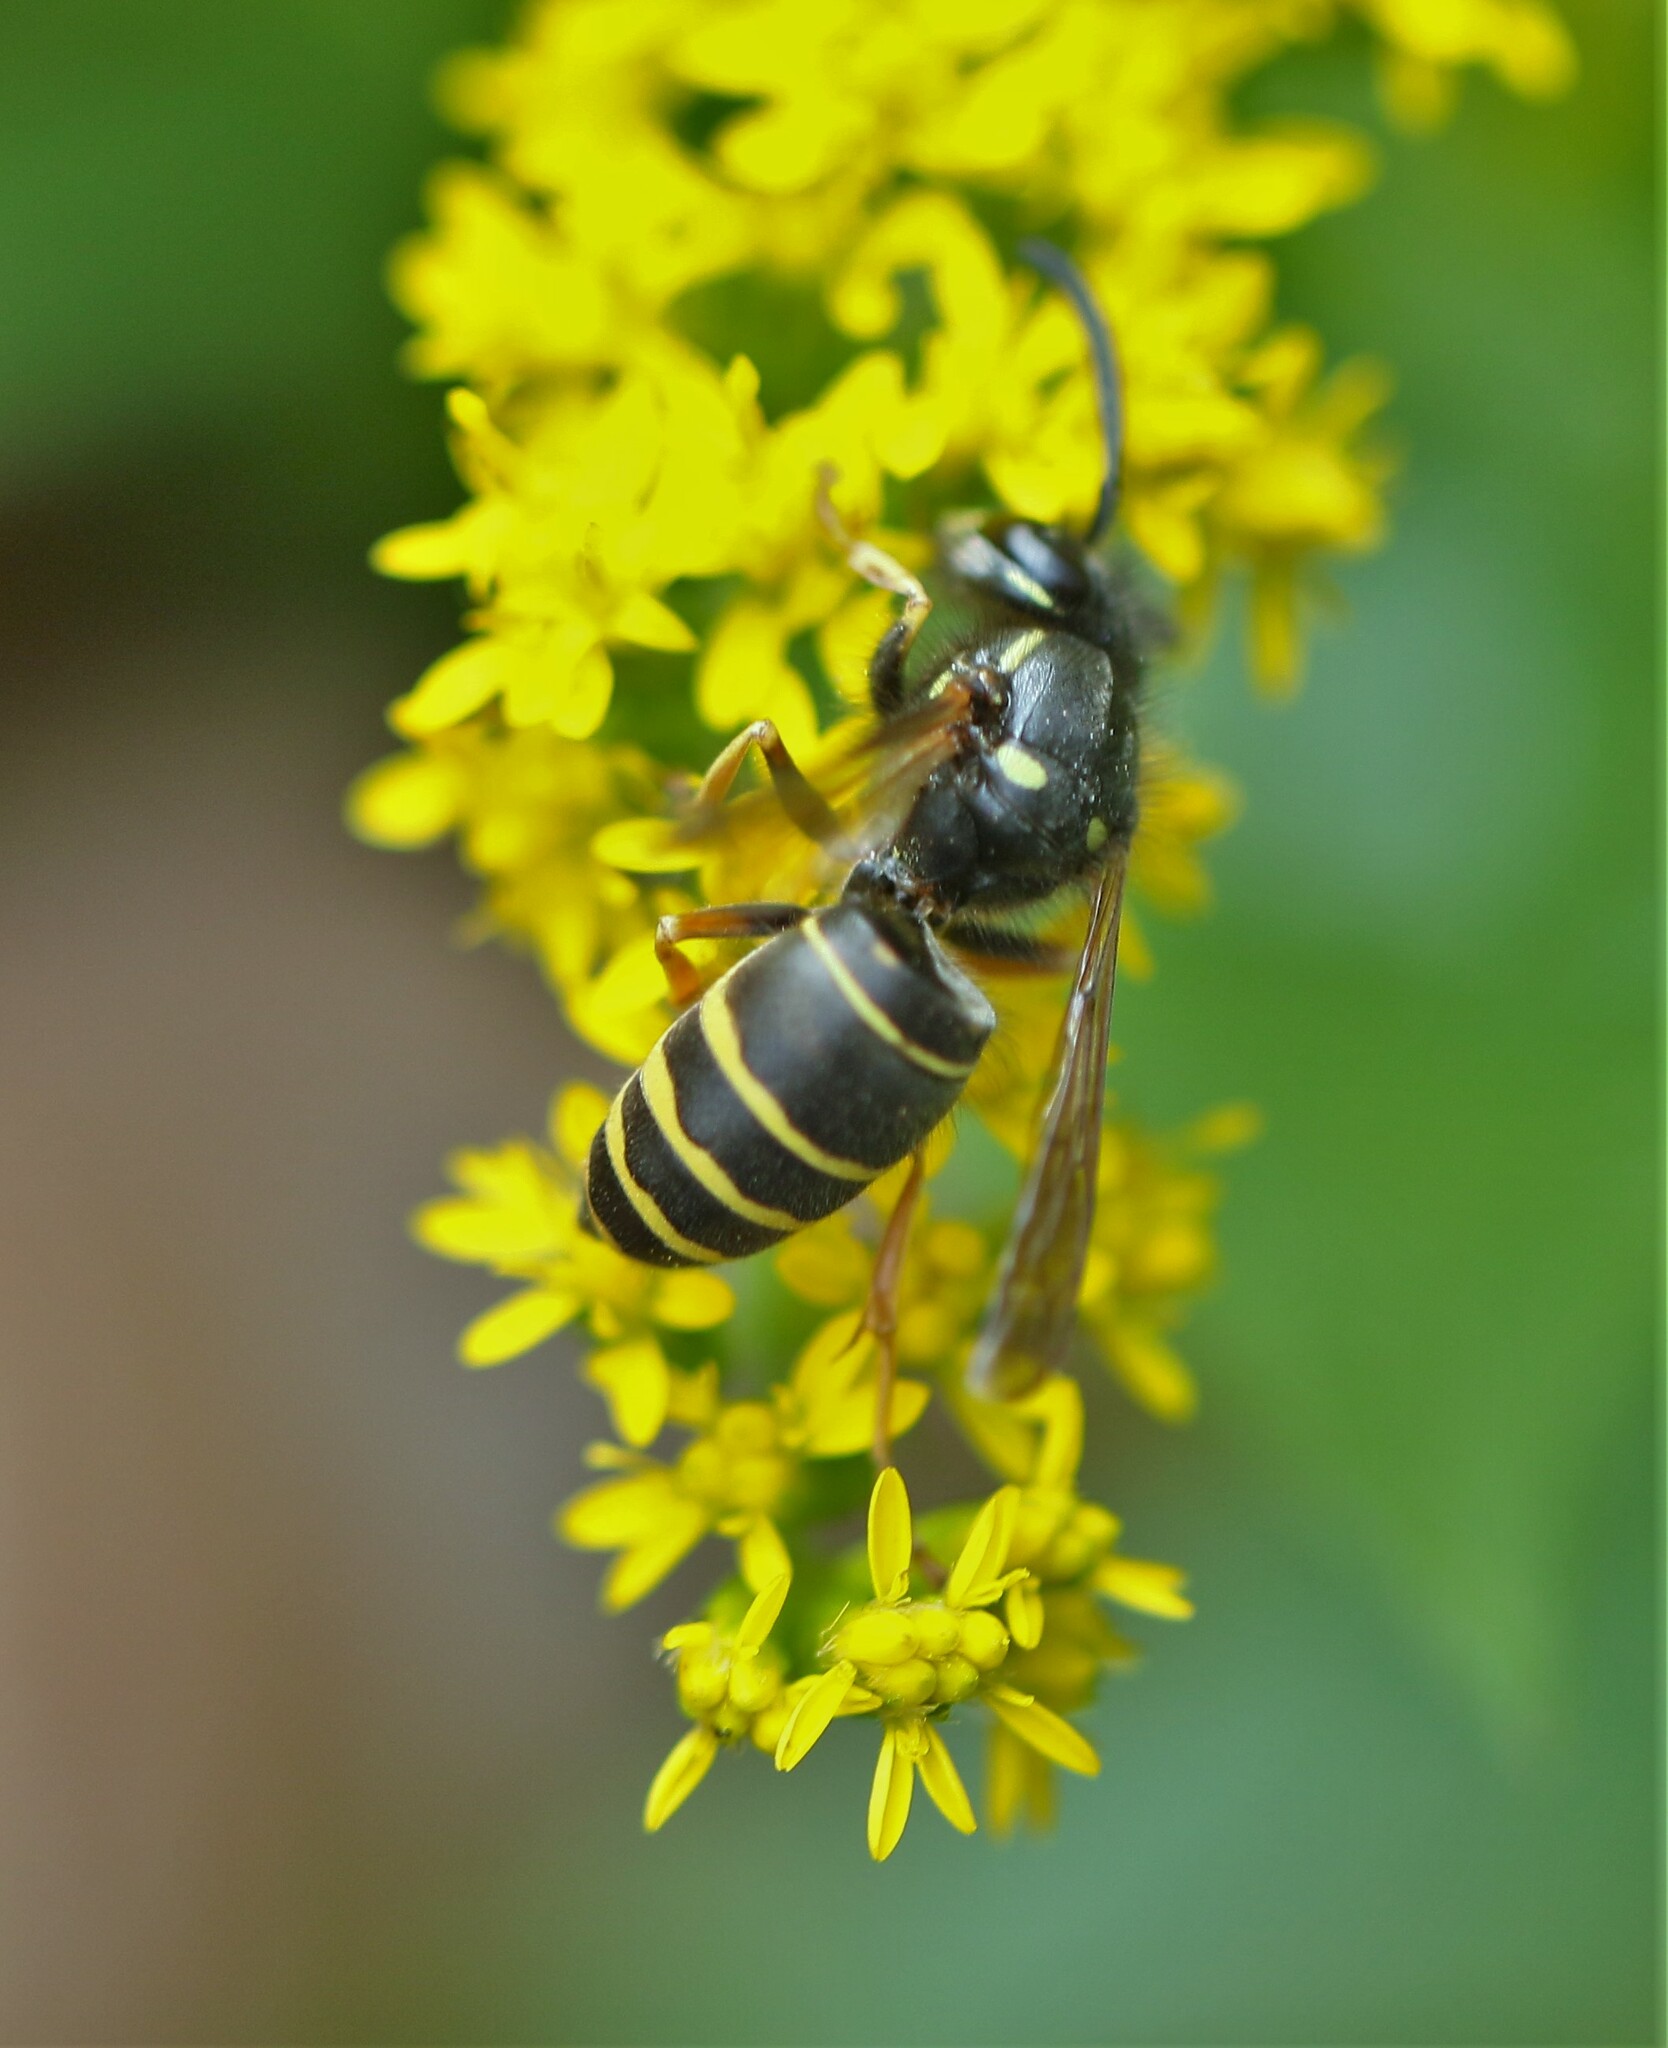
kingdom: Animalia
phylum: Arthropoda
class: Insecta
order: Hymenoptera
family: Vespidae
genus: Vespula
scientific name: Vespula acadica
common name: Forest yellowjacket
